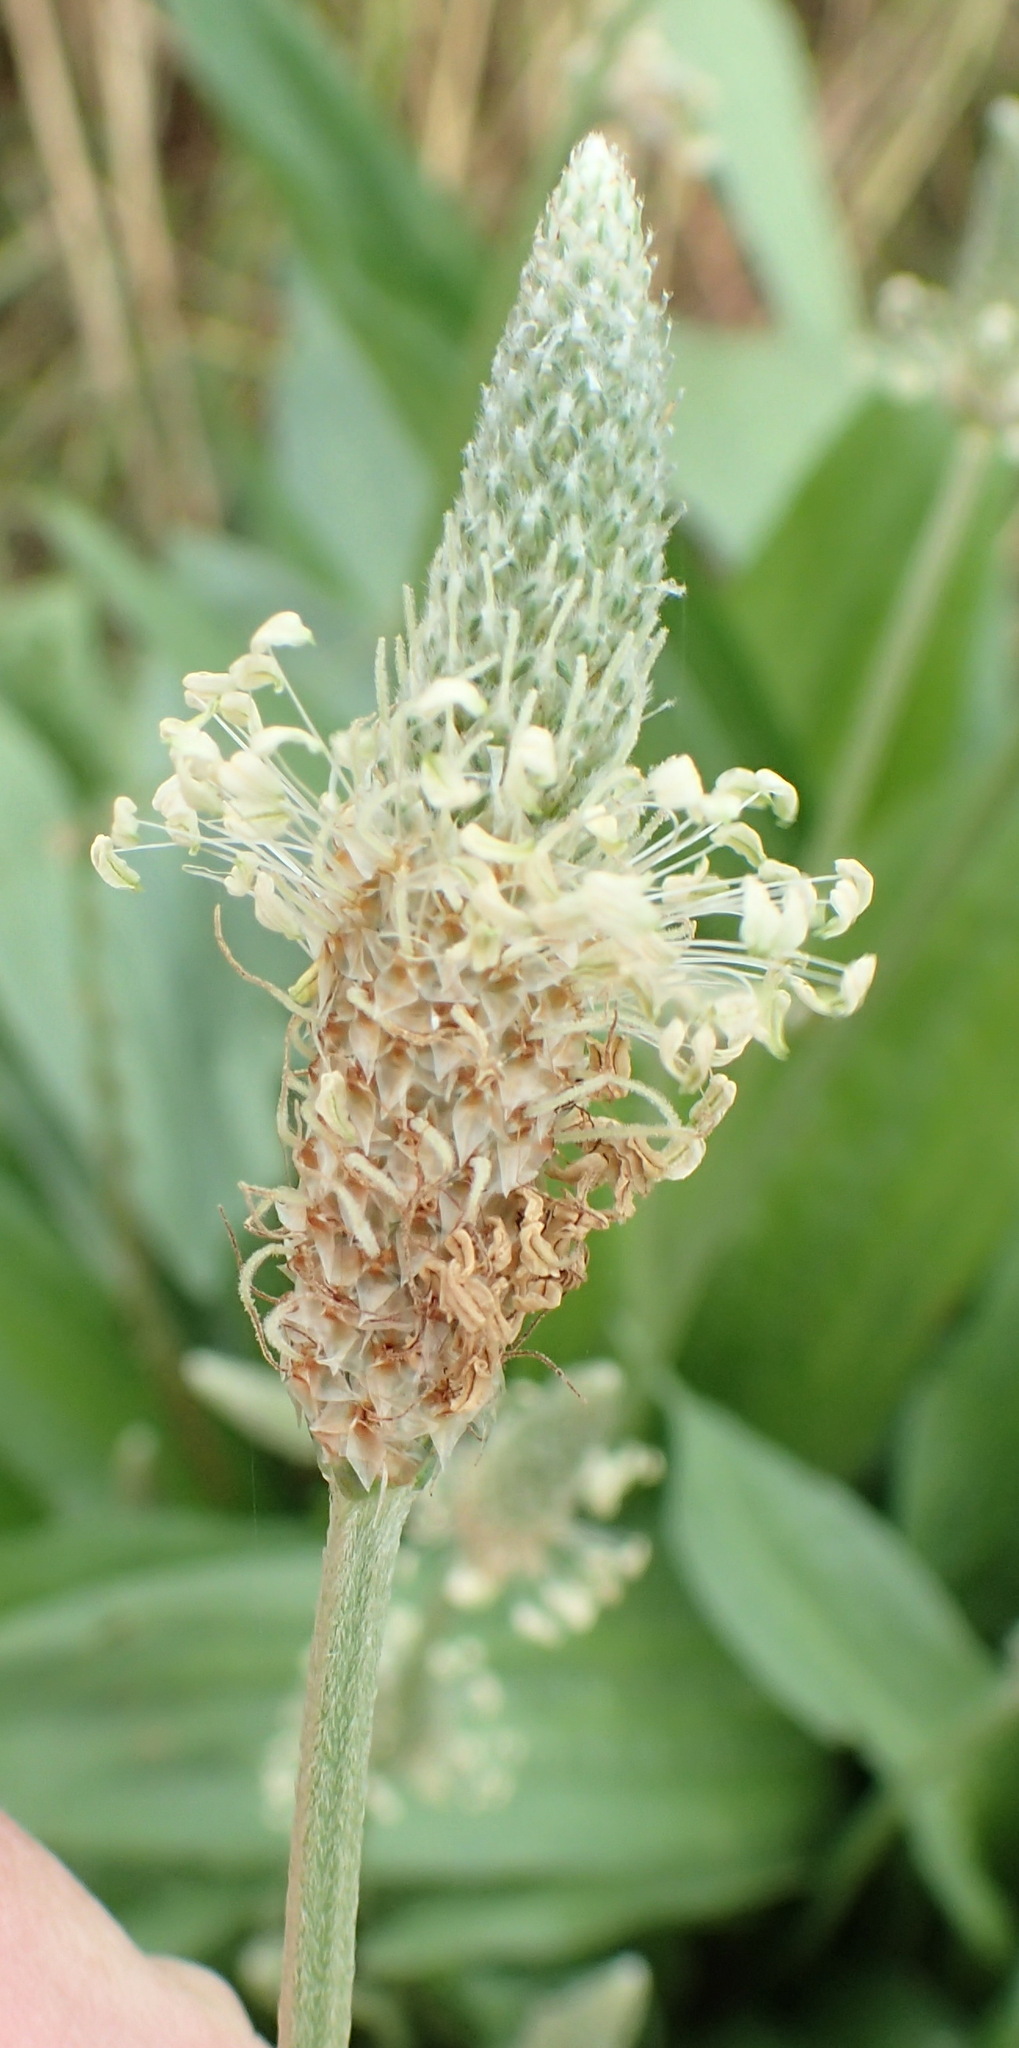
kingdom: Plantae
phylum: Tracheophyta
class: Magnoliopsida
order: Lamiales
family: Plantaginaceae
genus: Plantago
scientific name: Plantago lanceolata
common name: Ribwort plantain
